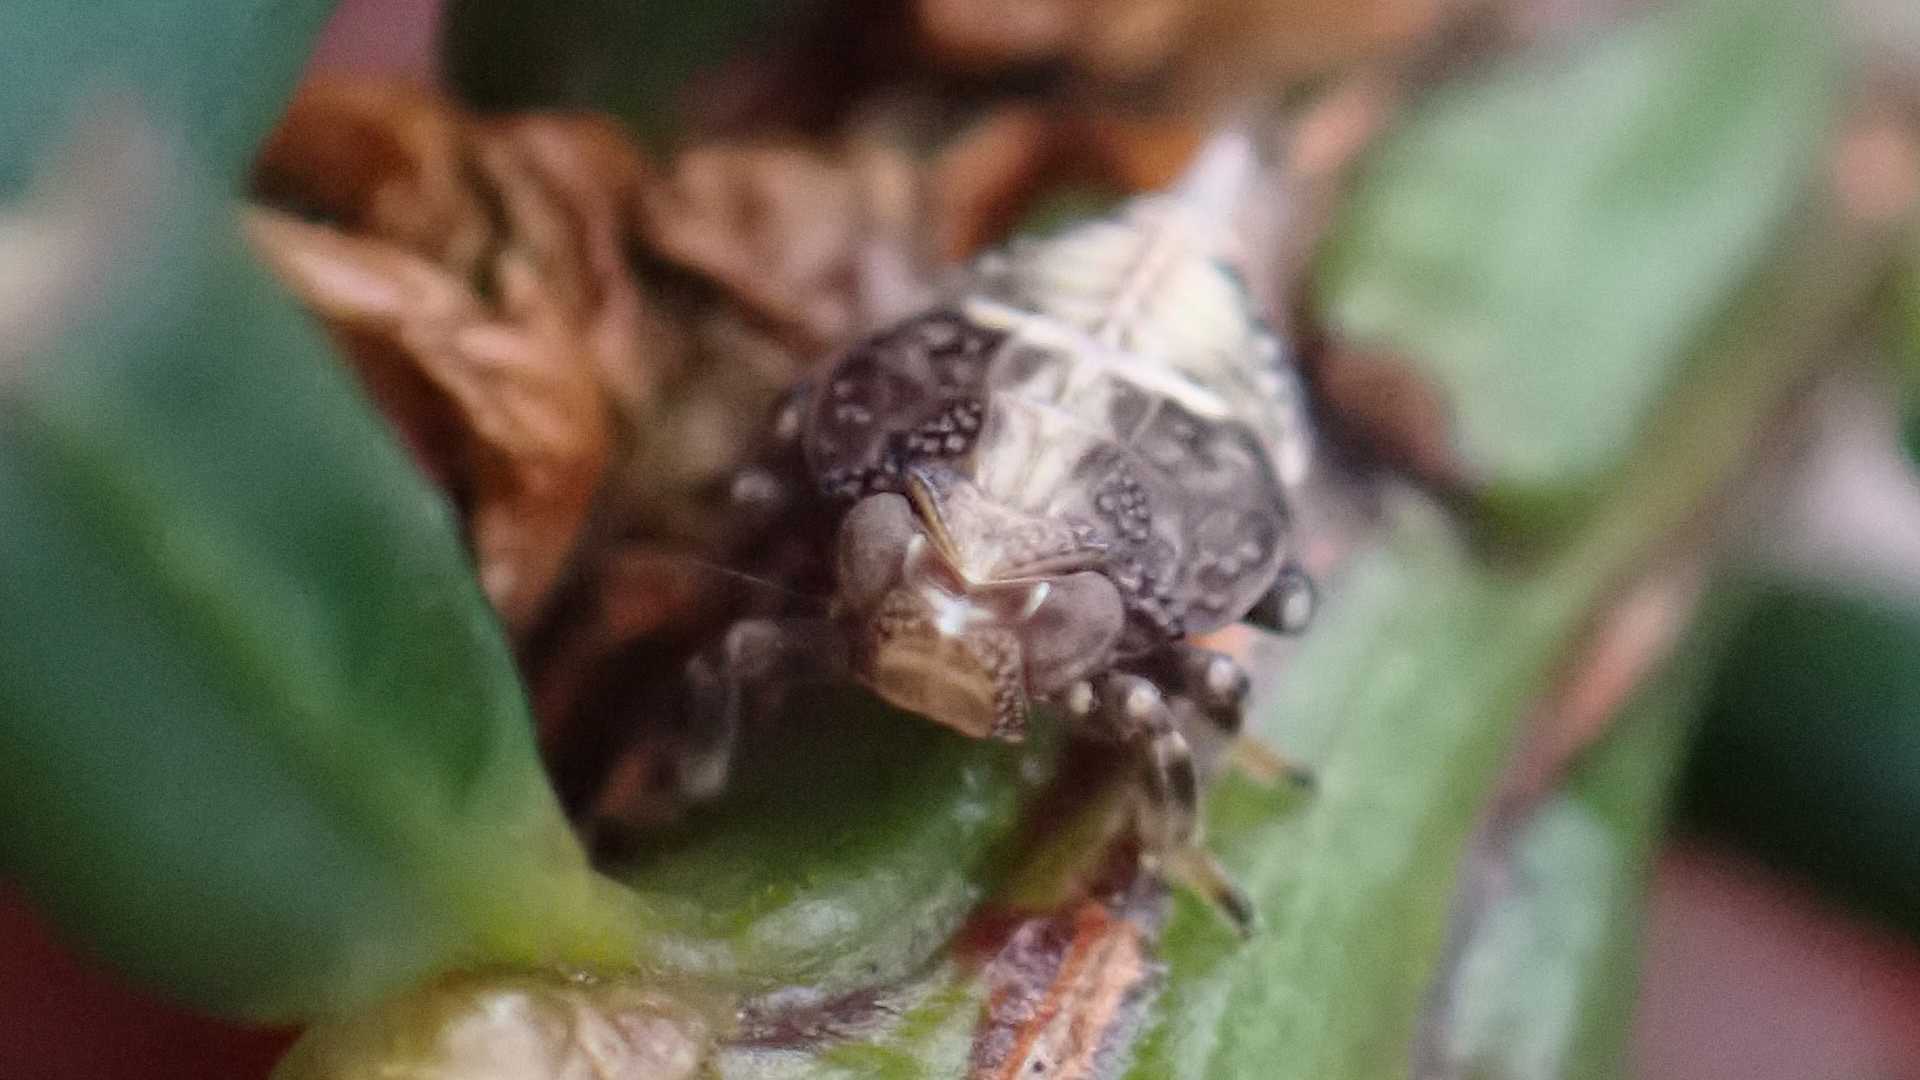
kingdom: Animalia
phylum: Arthropoda
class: Insecta
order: Hemiptera
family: Issidae
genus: Issus
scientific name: Issus coleoptratus
